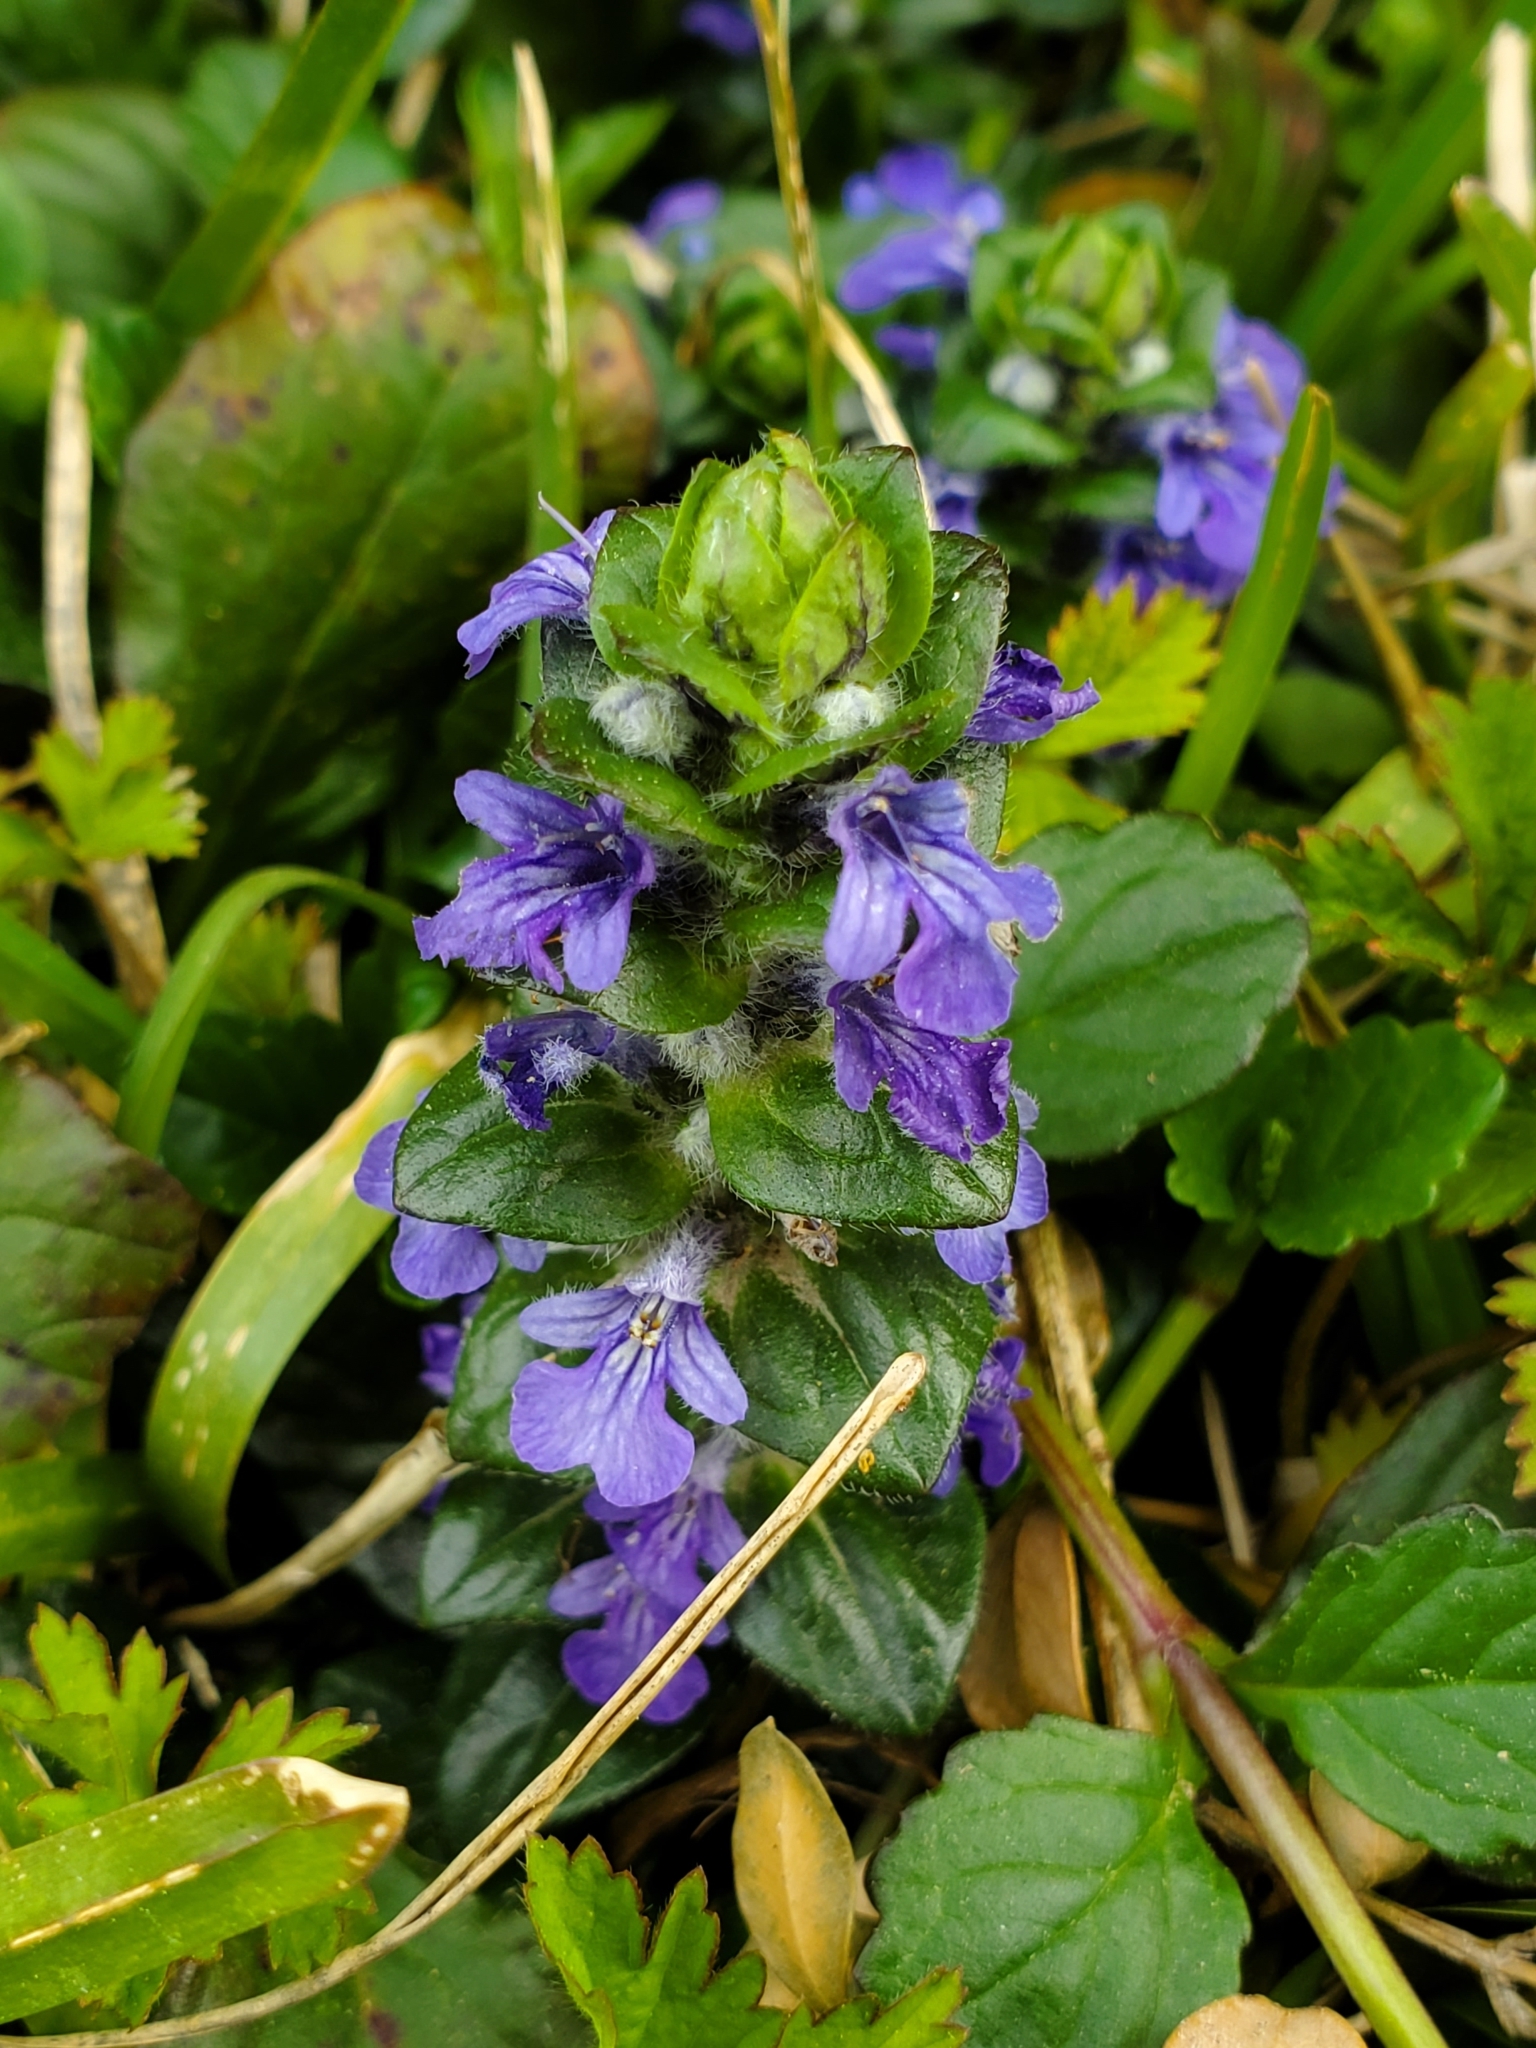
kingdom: Plantae
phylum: Tracheophyta
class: Magnoliopsida
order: Lamiales
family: Lamiaceae
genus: Ajuga
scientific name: Ajuga reptans
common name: Bugle
